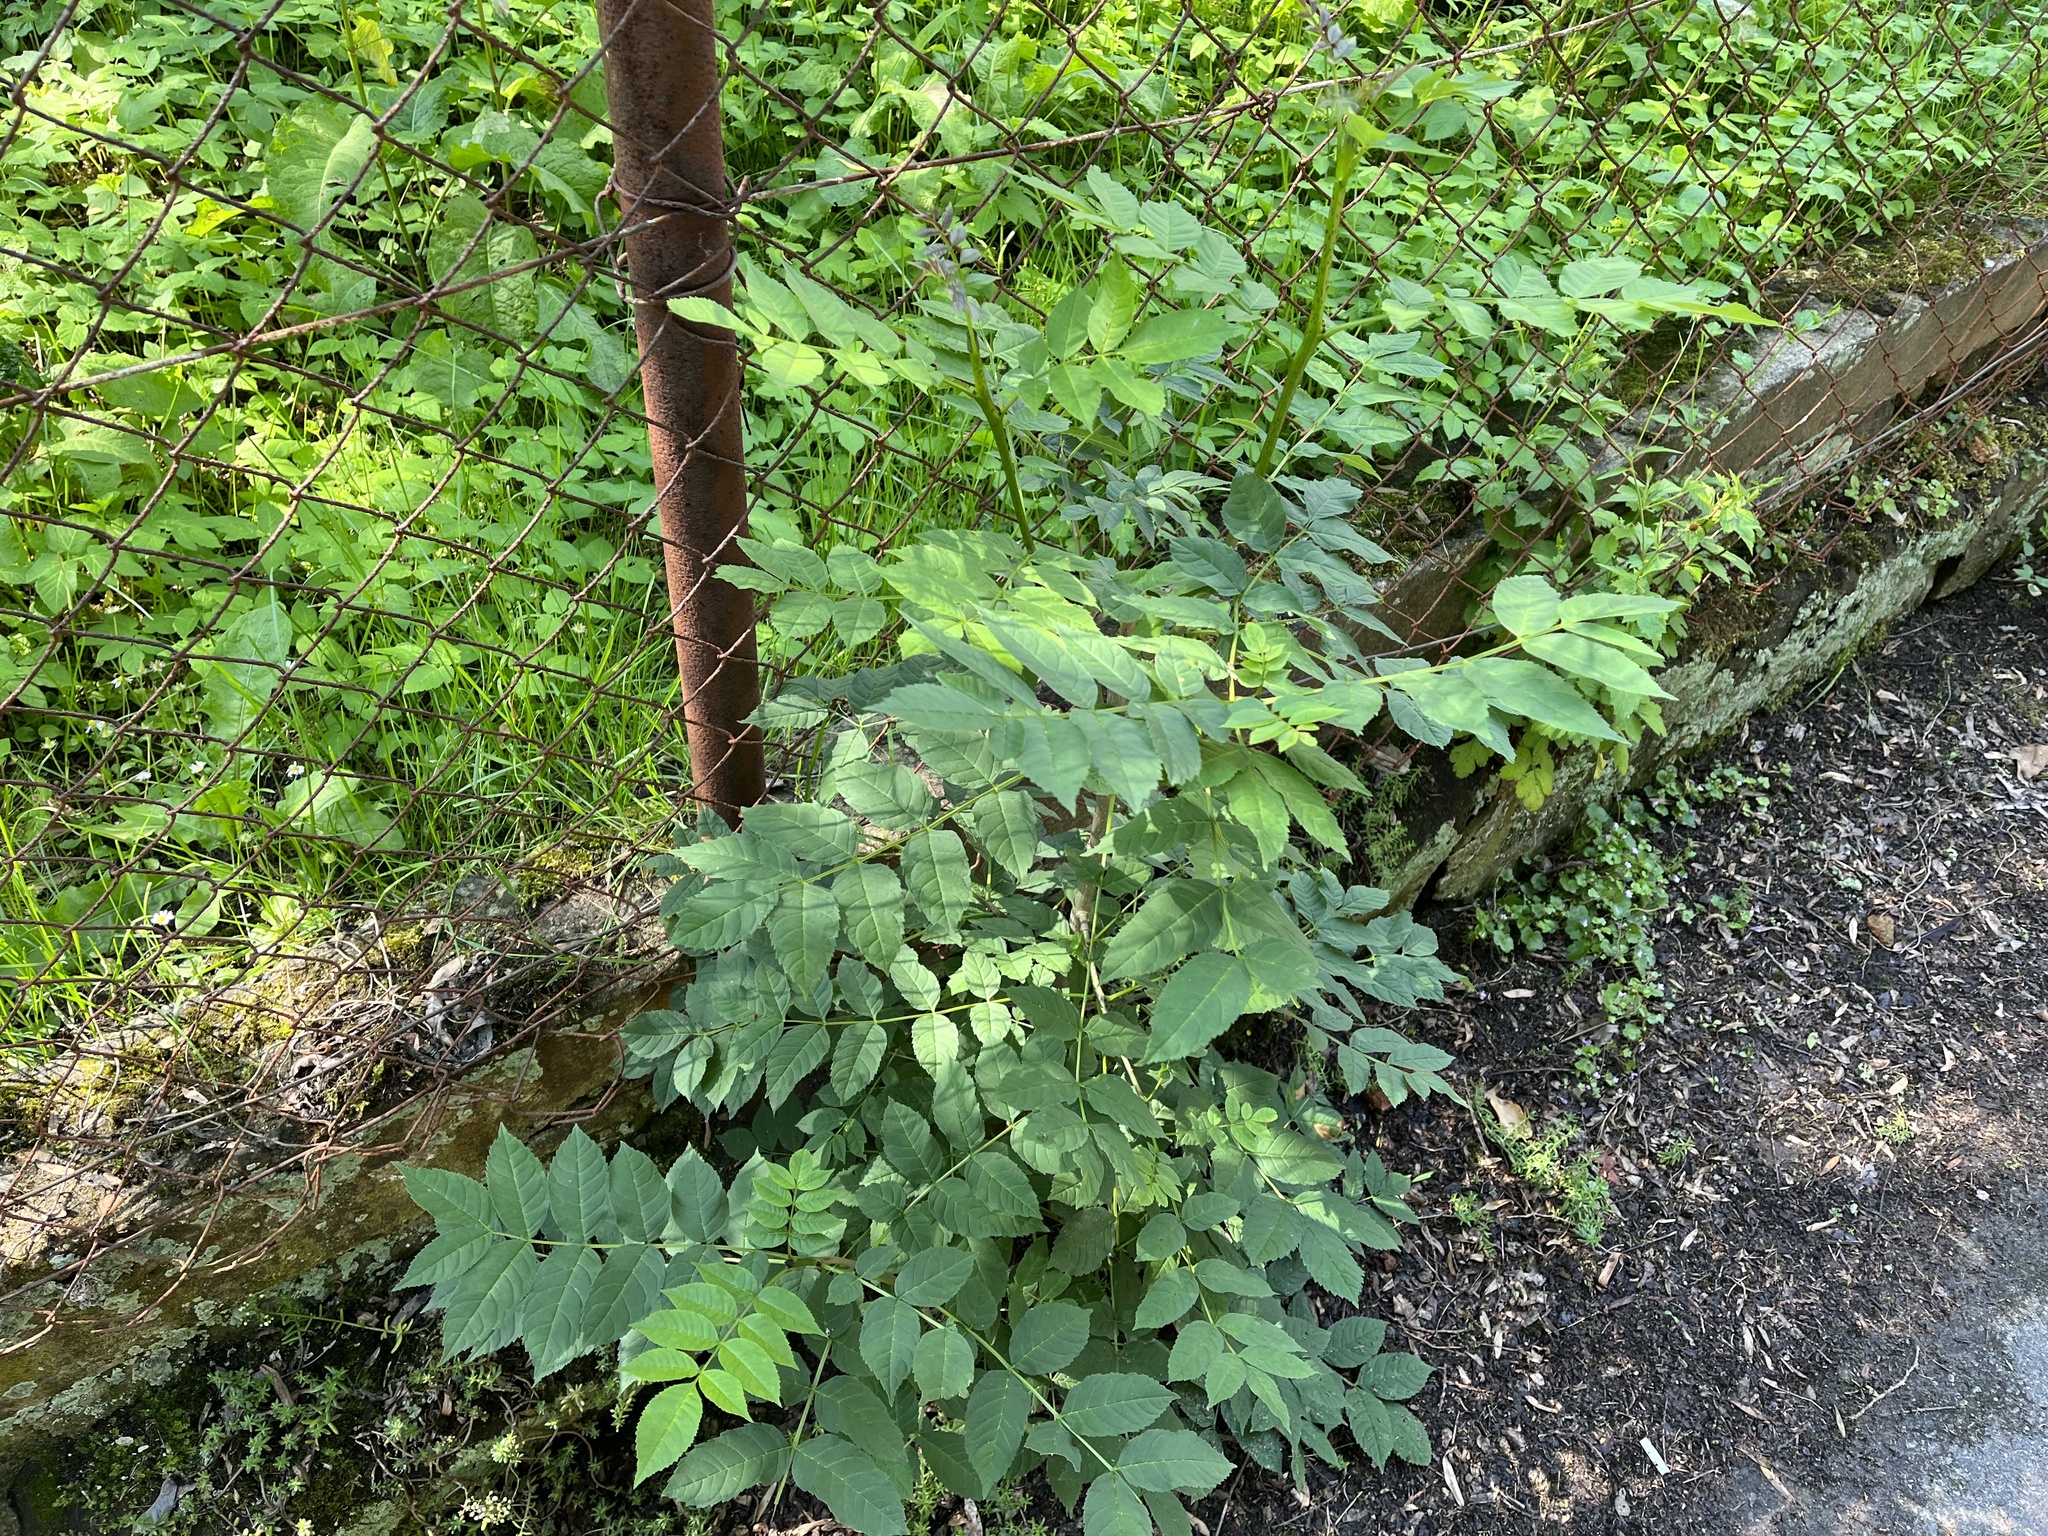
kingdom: Plantae
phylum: Tracheophyta
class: Magnoliopsida
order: Lamiales
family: Oleaceae
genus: Fraxinus
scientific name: Fraxinus excelsior
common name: European ash
